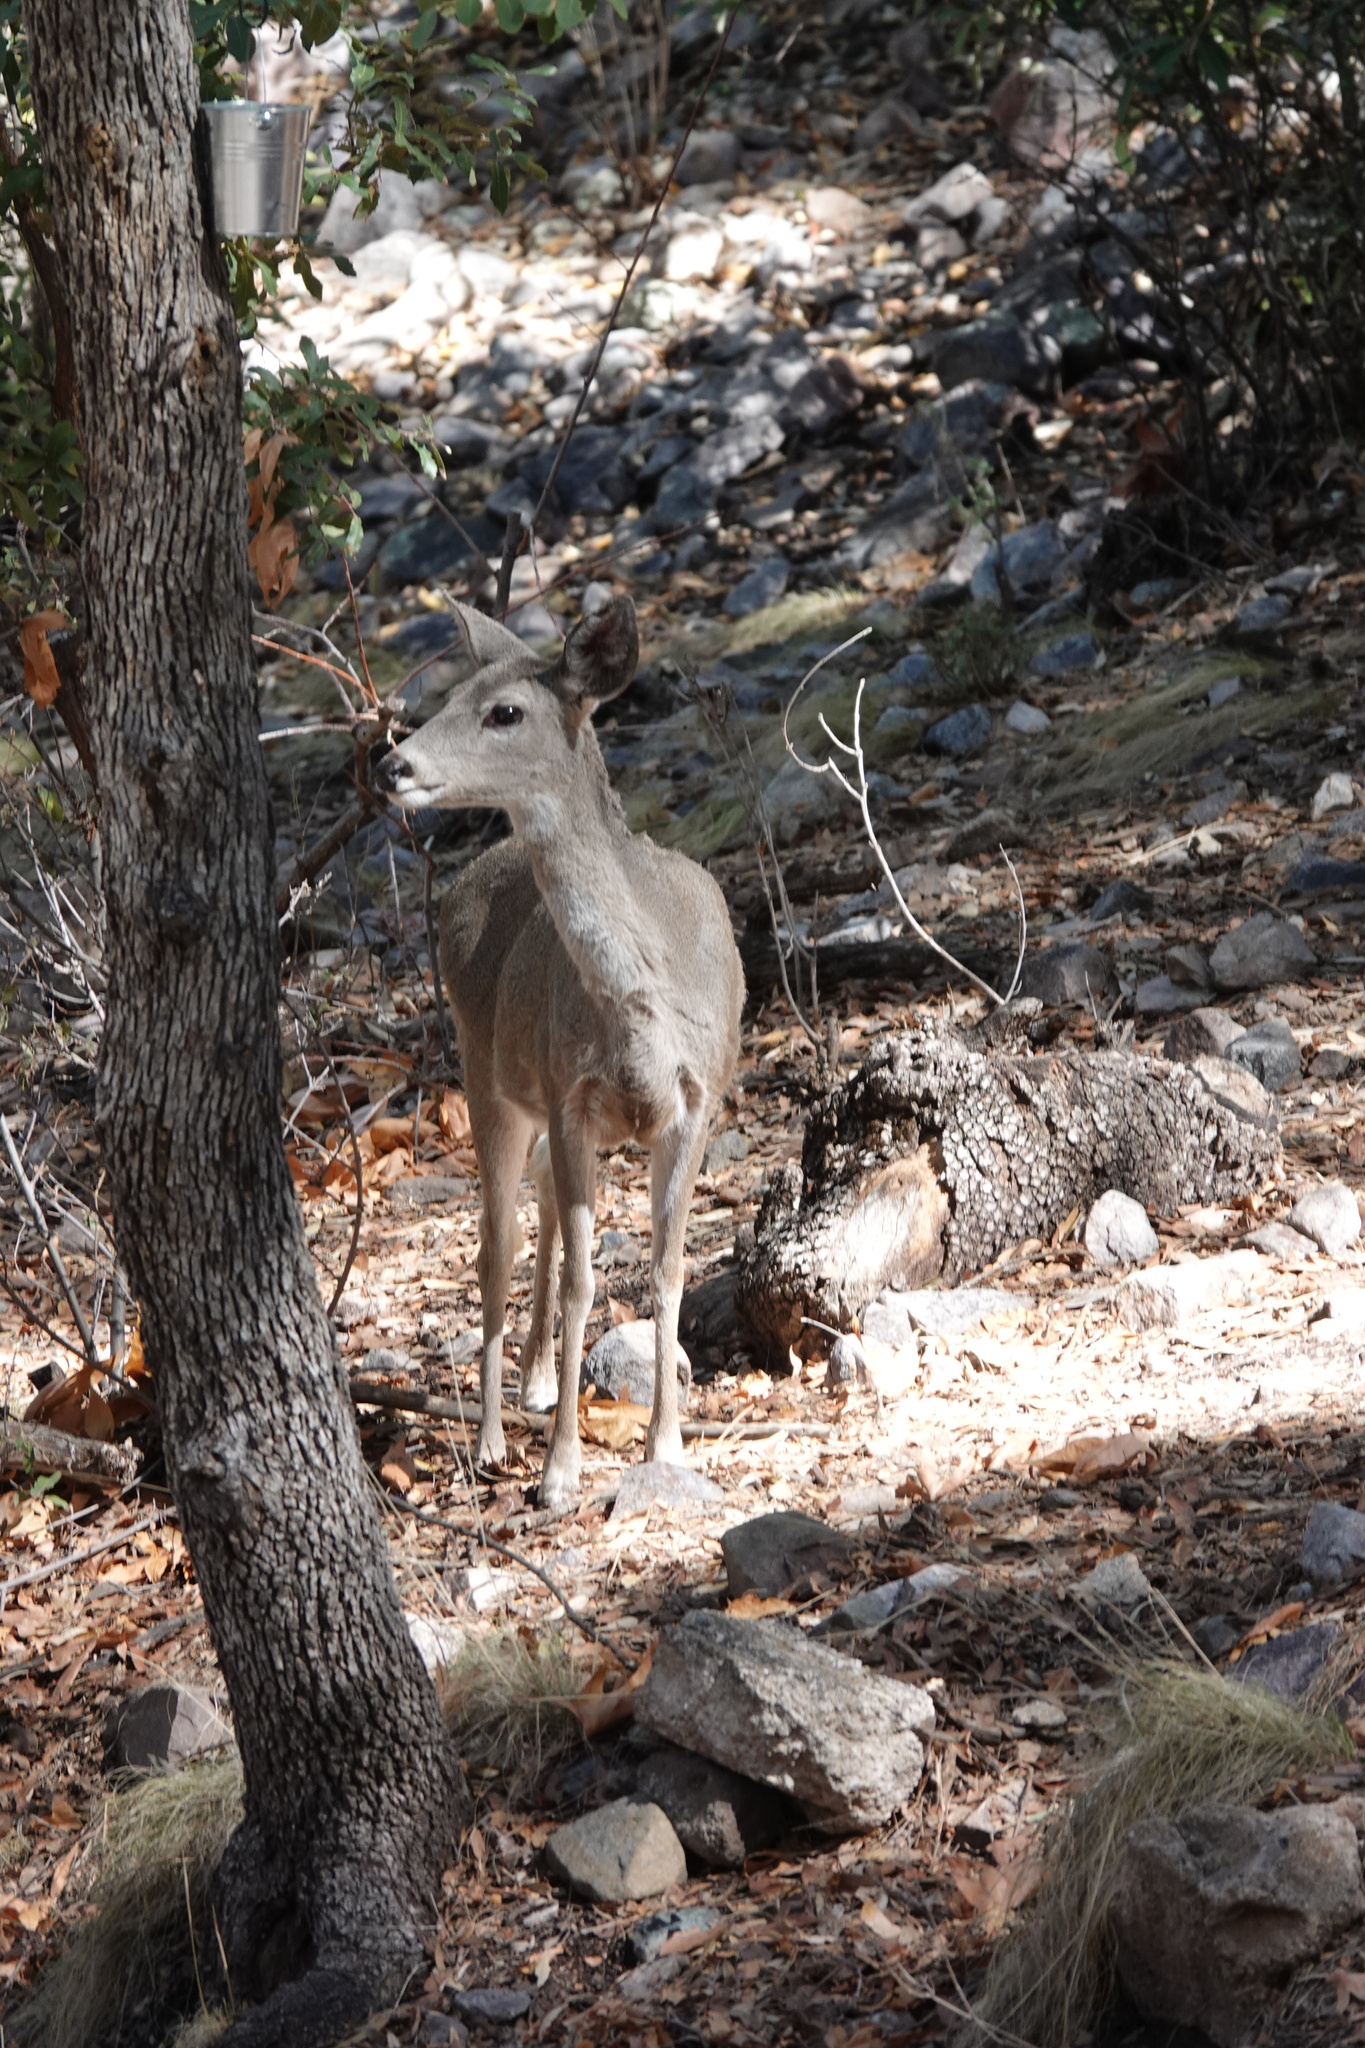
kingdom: Animalia
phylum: Chordata
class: Mammalia
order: Artiodactyla
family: Cervidae
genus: Odocoileus
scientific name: Odocoileus virginianus
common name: White-tailed deer
